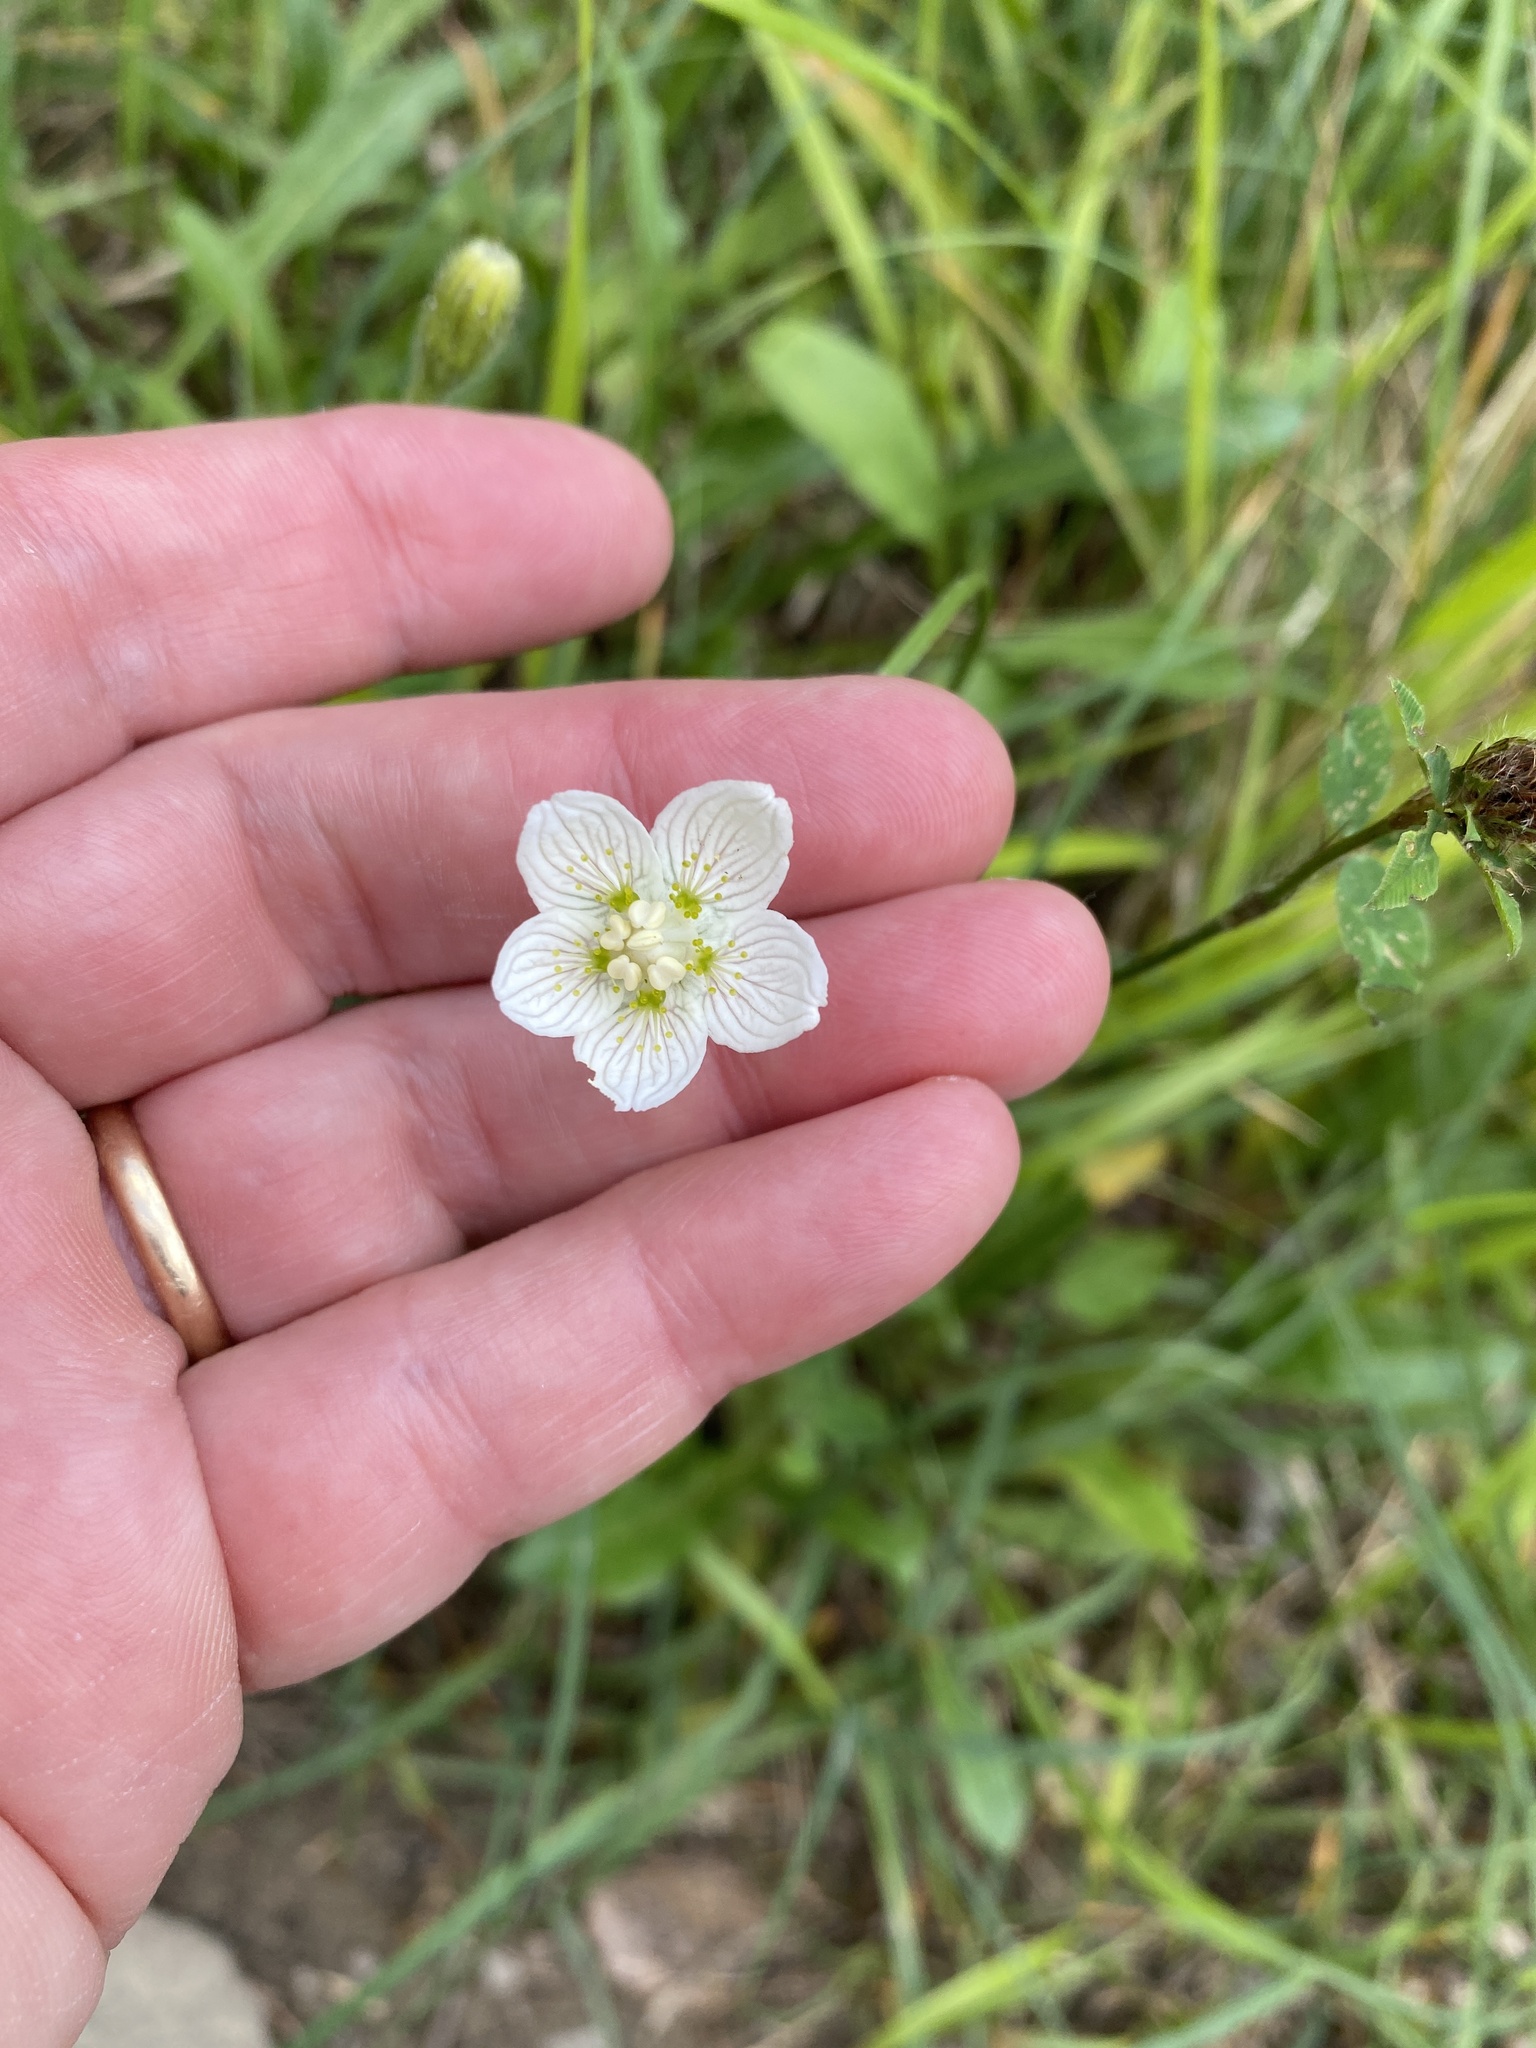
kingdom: Plantae
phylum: Tracheophyta
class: Magnoliopsida
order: Celastrales
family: Parnassiaceae
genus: Parnassia
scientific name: Parnassia palustris
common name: Grass-of-parnassus
